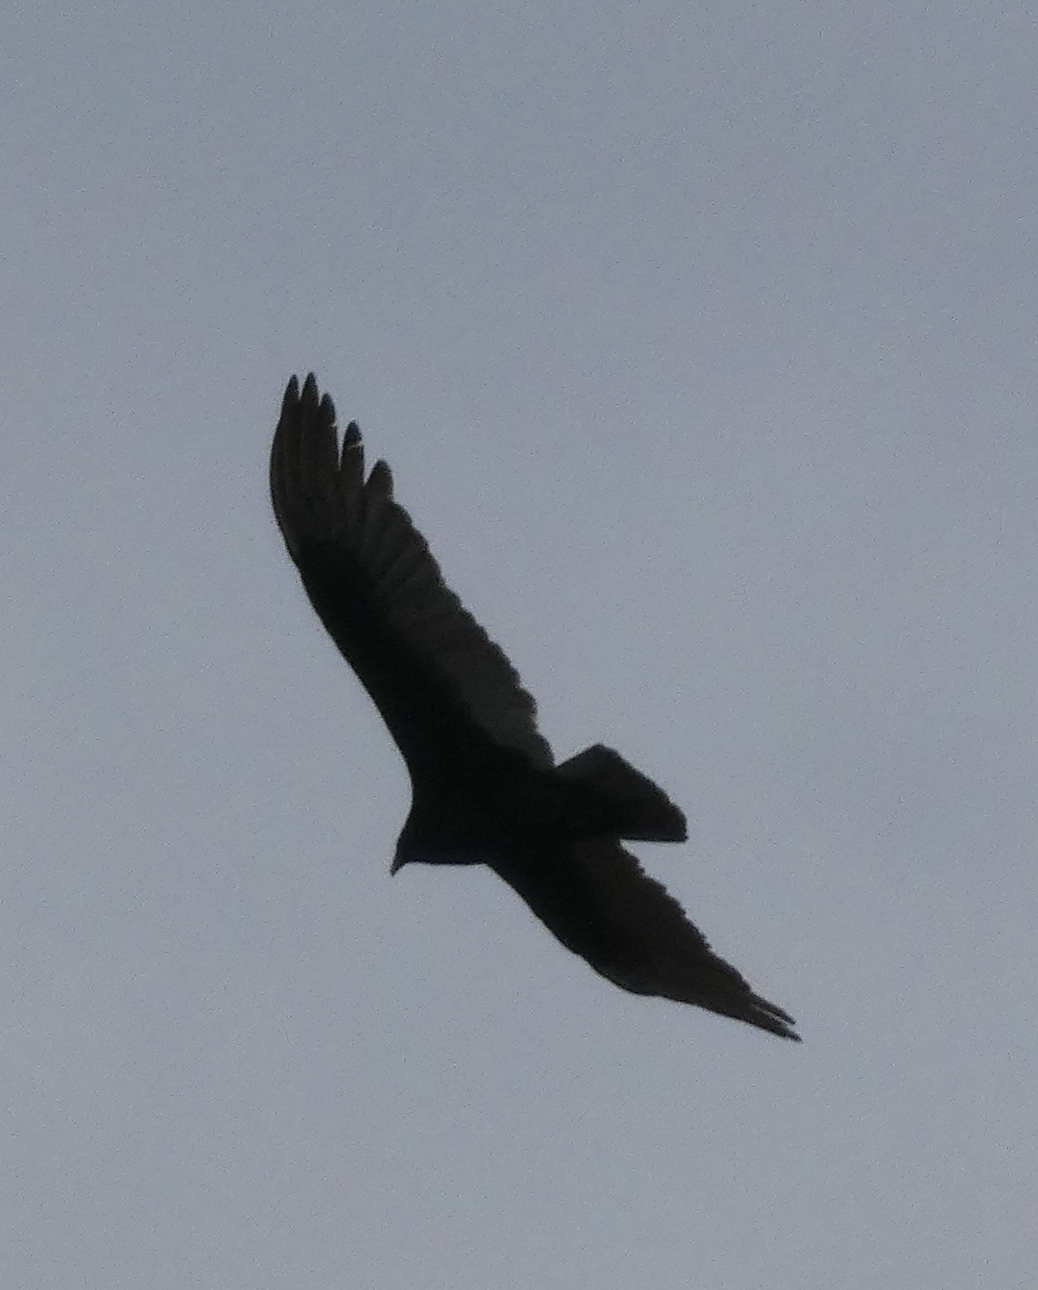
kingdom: Animalia
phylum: Chordata
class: Aves
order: Accipitriformes
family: Cathartidae
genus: Cathartes
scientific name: Cathartes aura
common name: Turkey vulture
